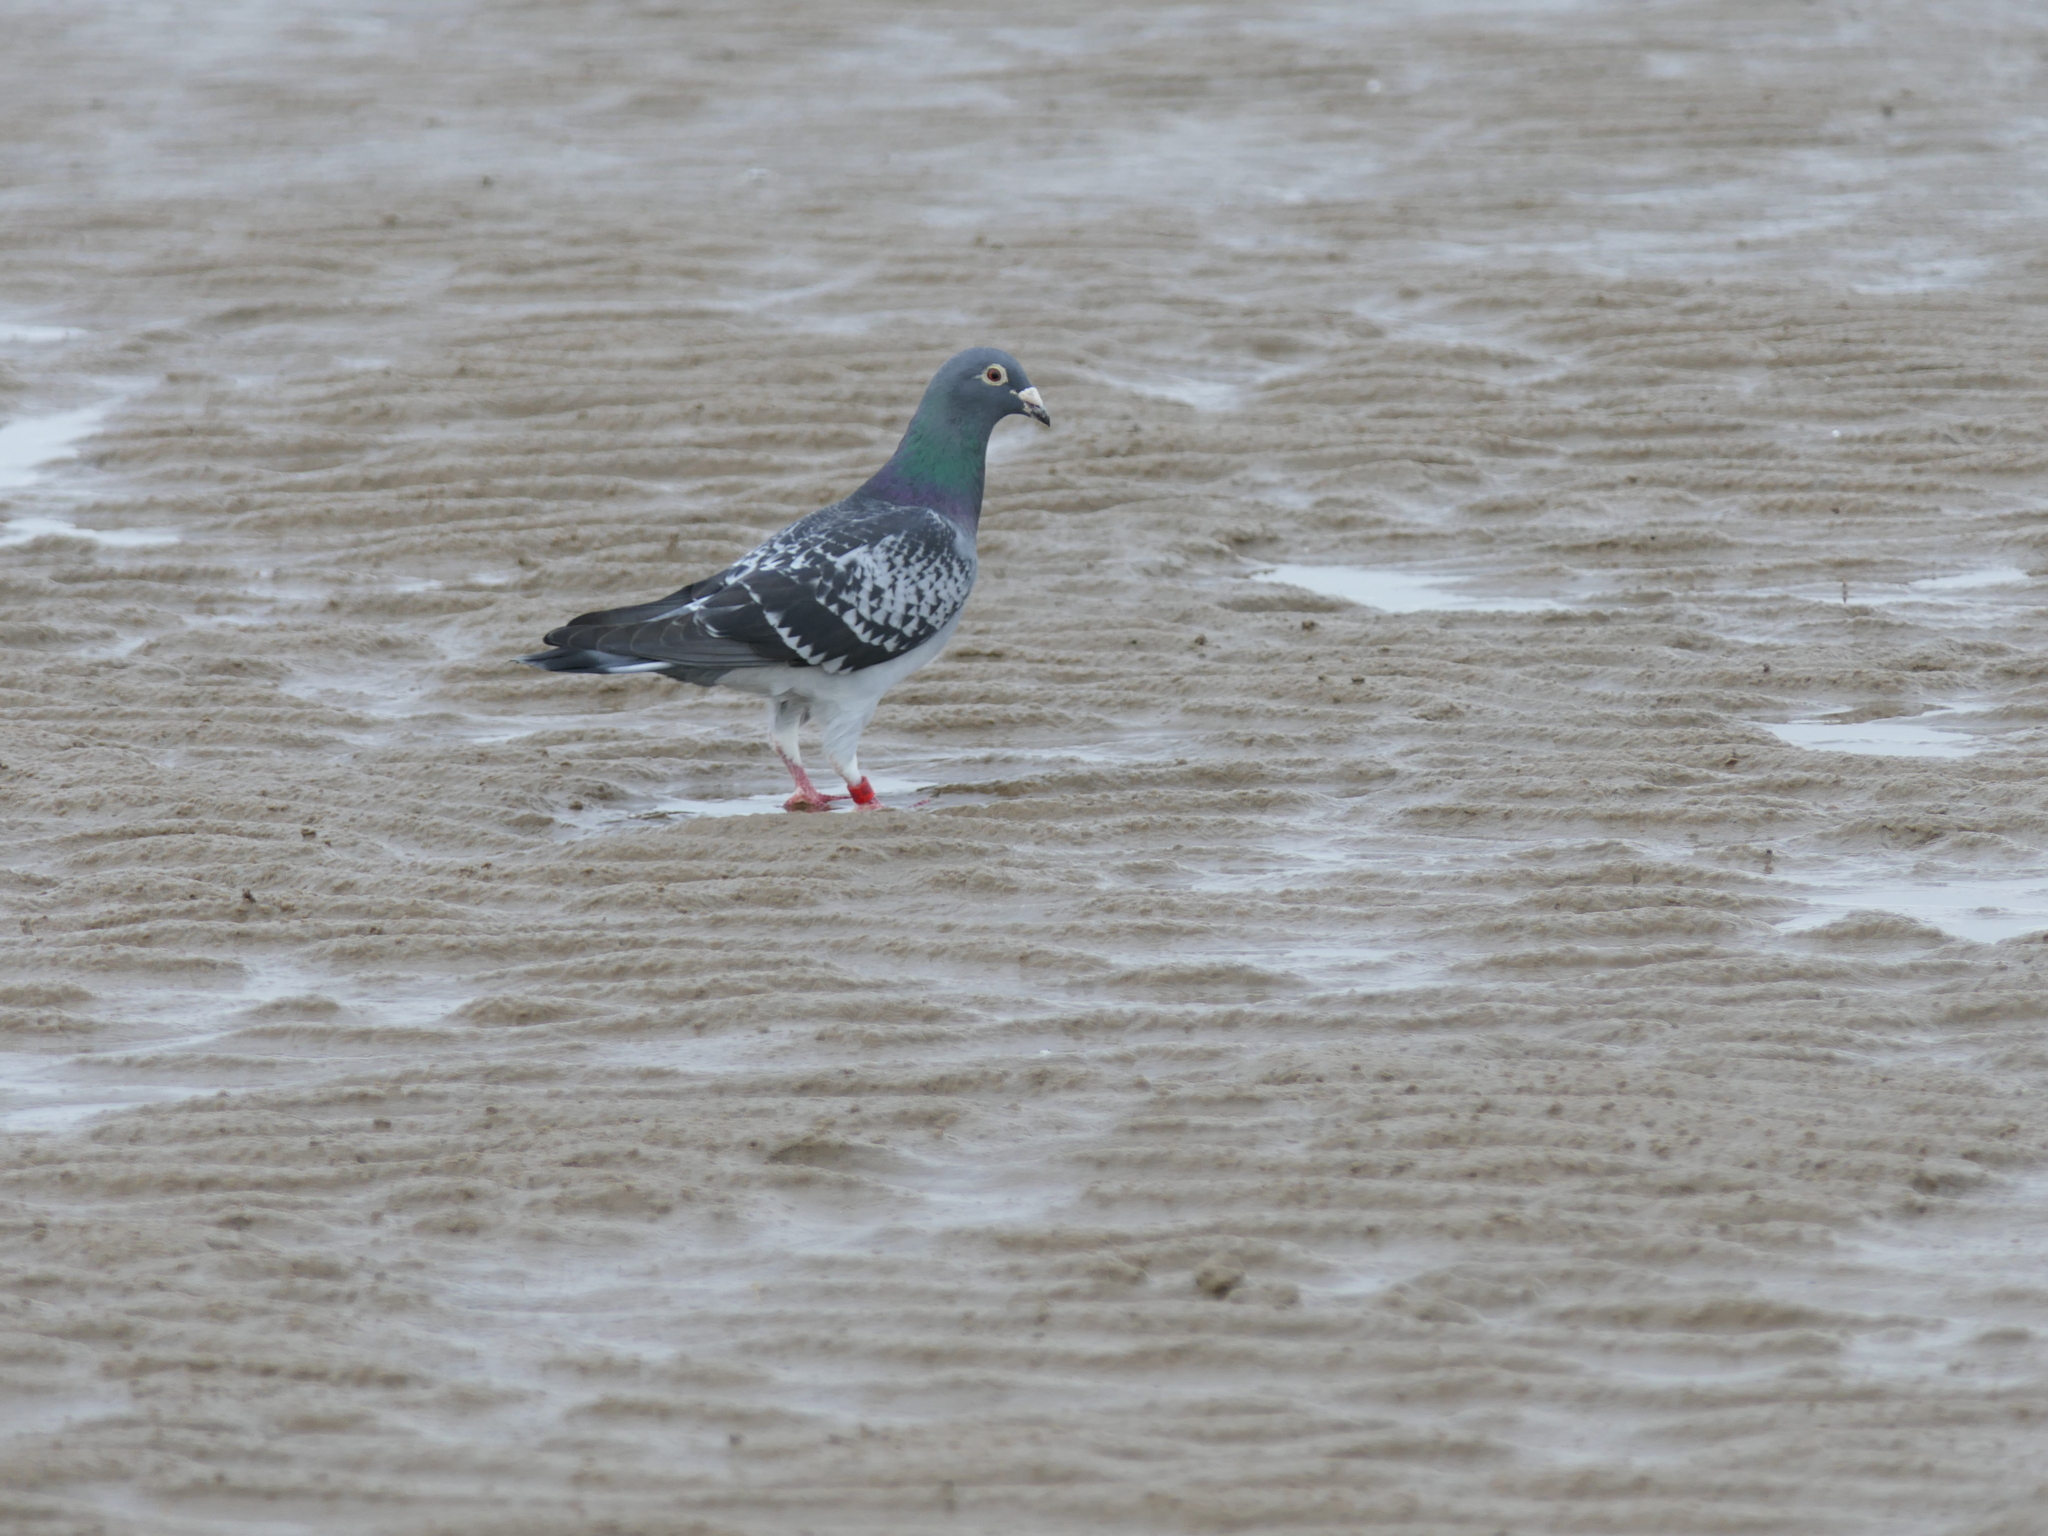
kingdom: Animalia
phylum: Chordata
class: Aves
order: Columbiformes
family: Columbidae
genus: Columba
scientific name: Columba livia
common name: Rock pigeon
